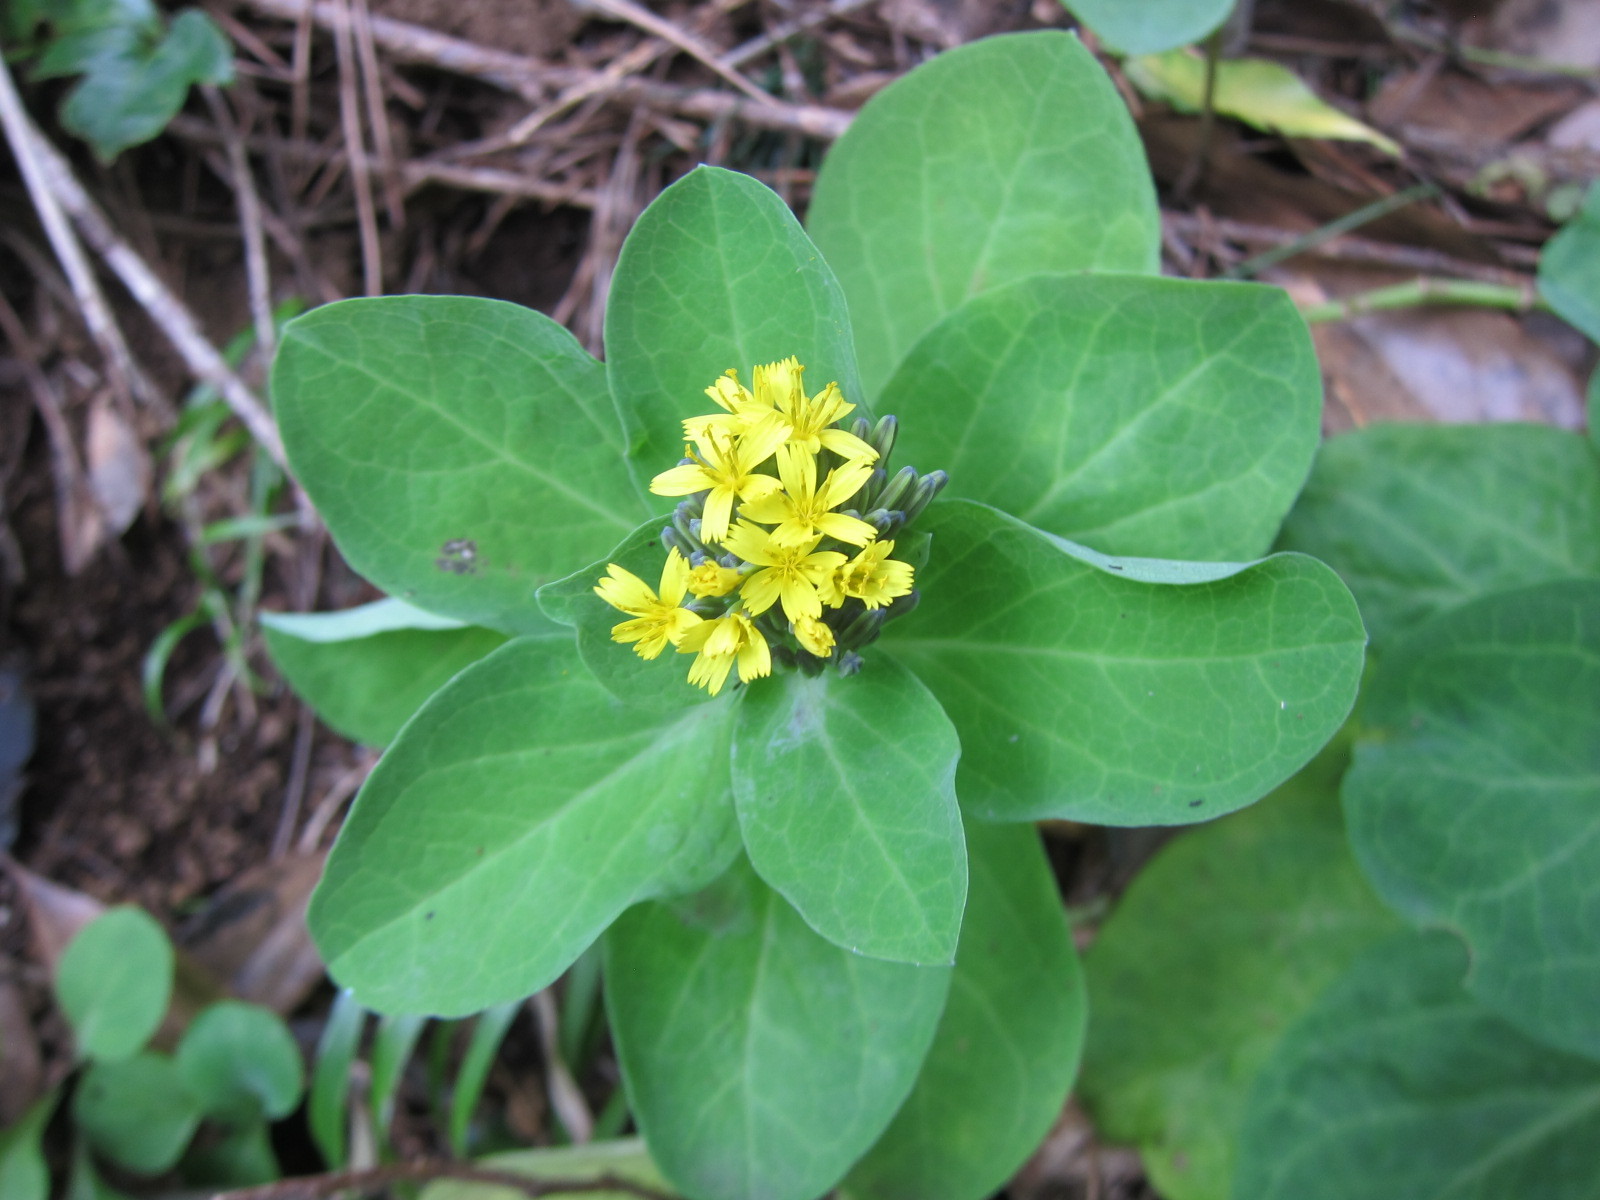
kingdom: Plantae
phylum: Tracheophyta
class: Magnoliopsida
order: Asterales
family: Asteraceae
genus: Crepidiastrum
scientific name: Crepidiastrum platyphyllum
